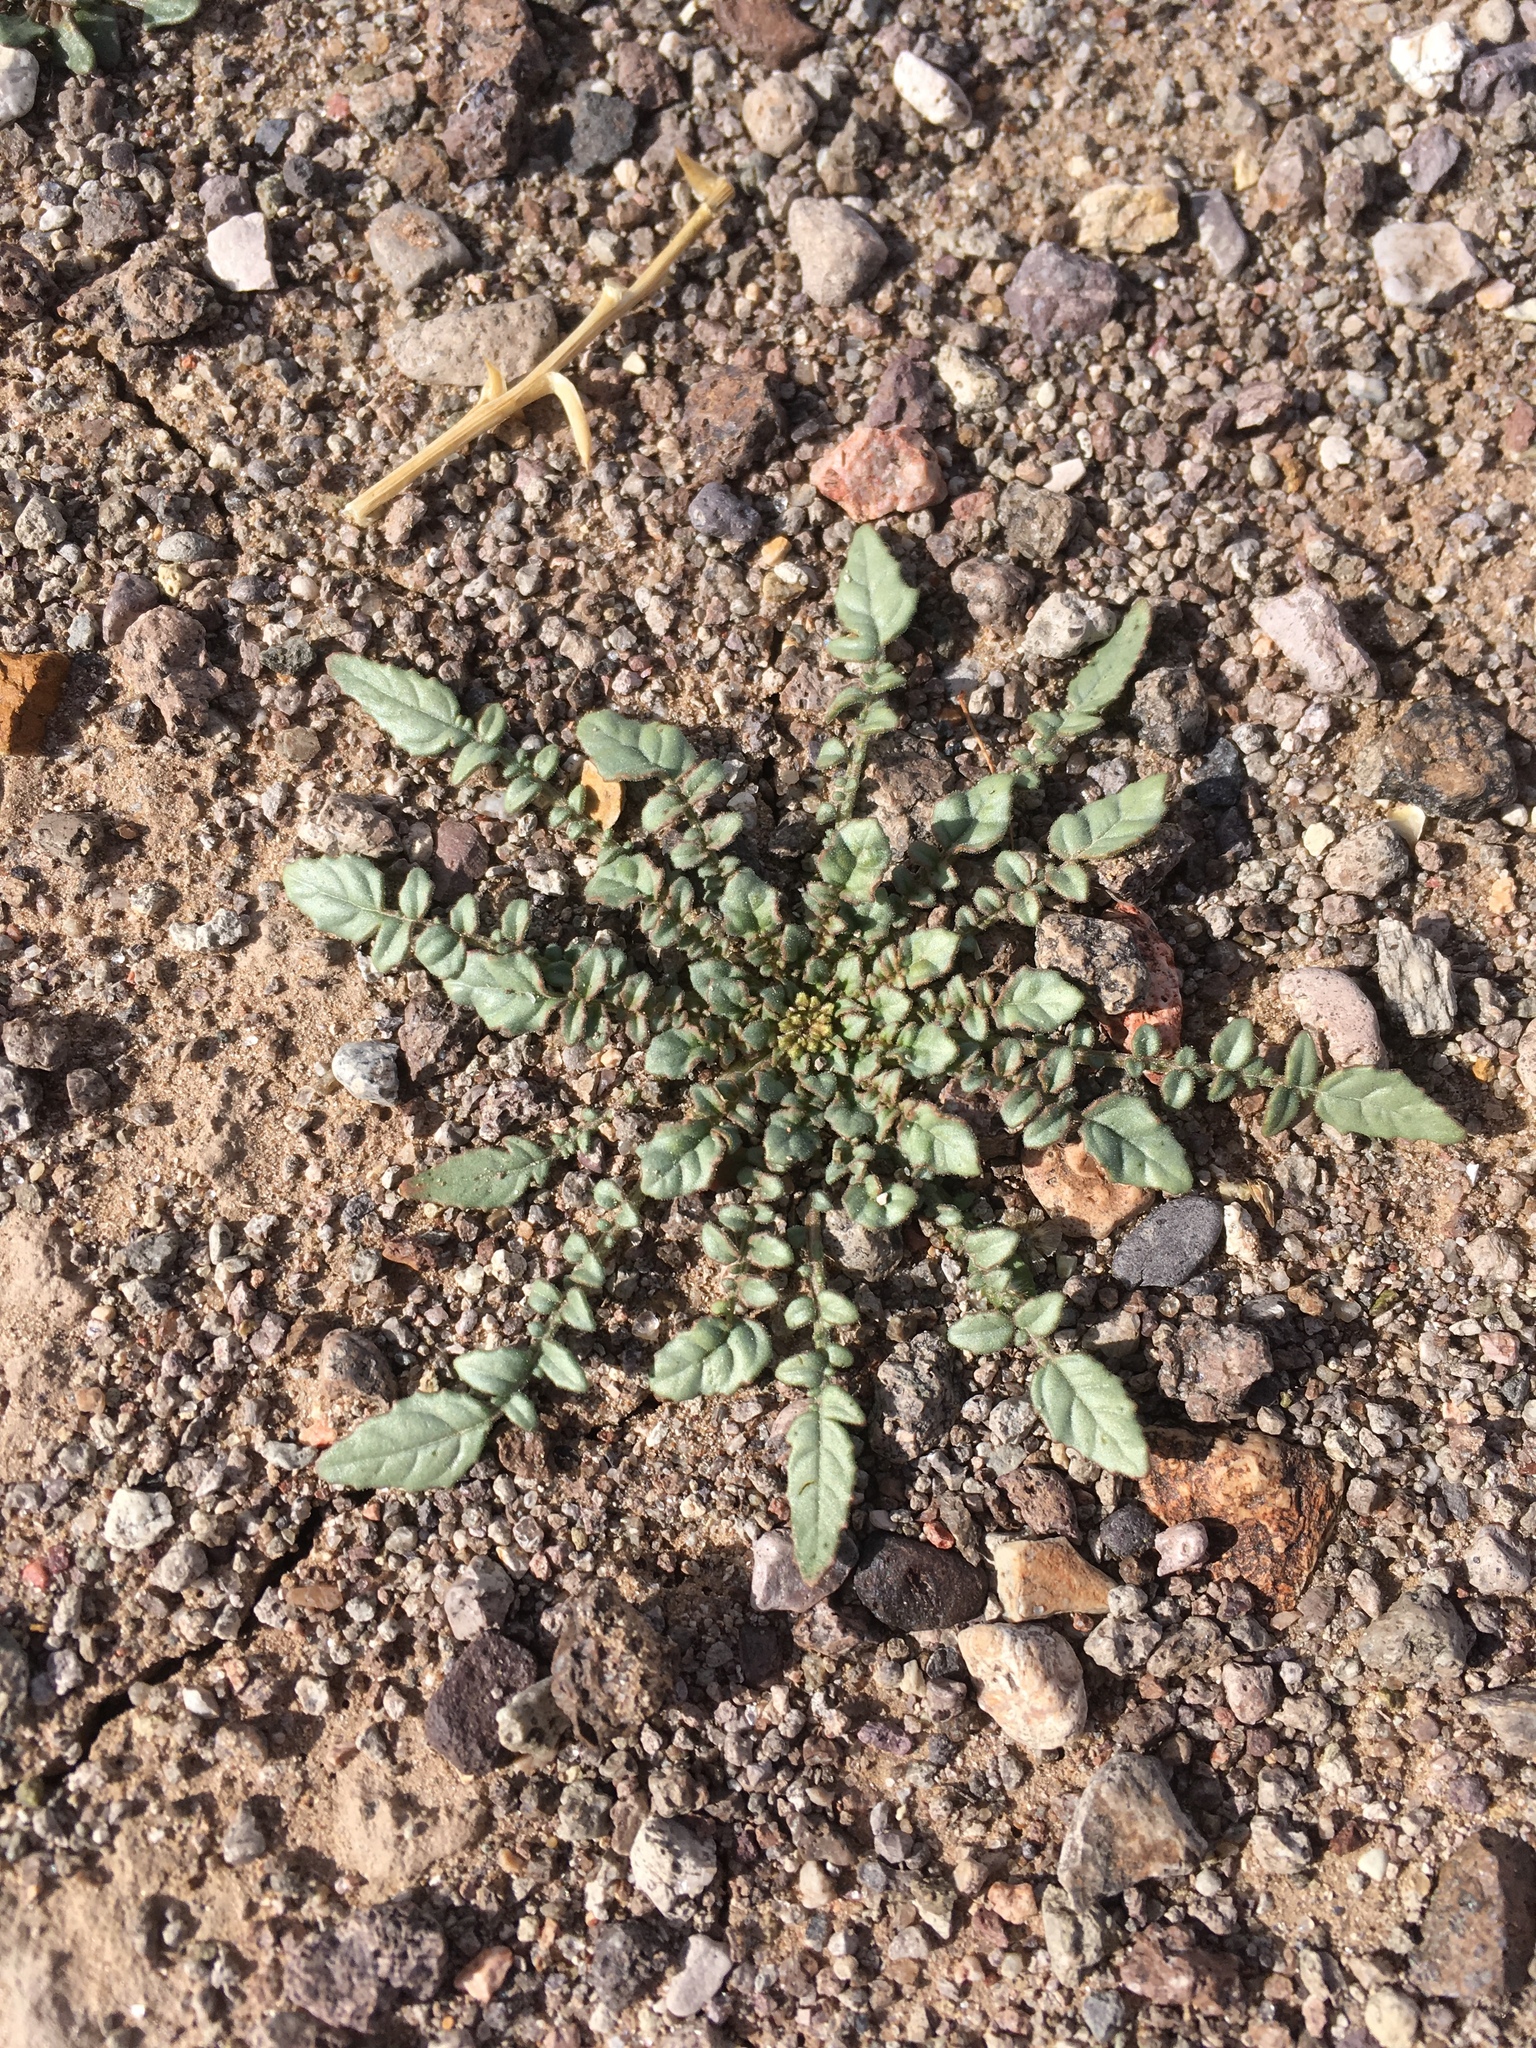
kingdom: Plantae
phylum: Tracheophyta
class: Magnoliopsida
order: Myrtales
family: Onagraceae
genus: Chylismia
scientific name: Chylismia claviformis
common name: Browneyes
